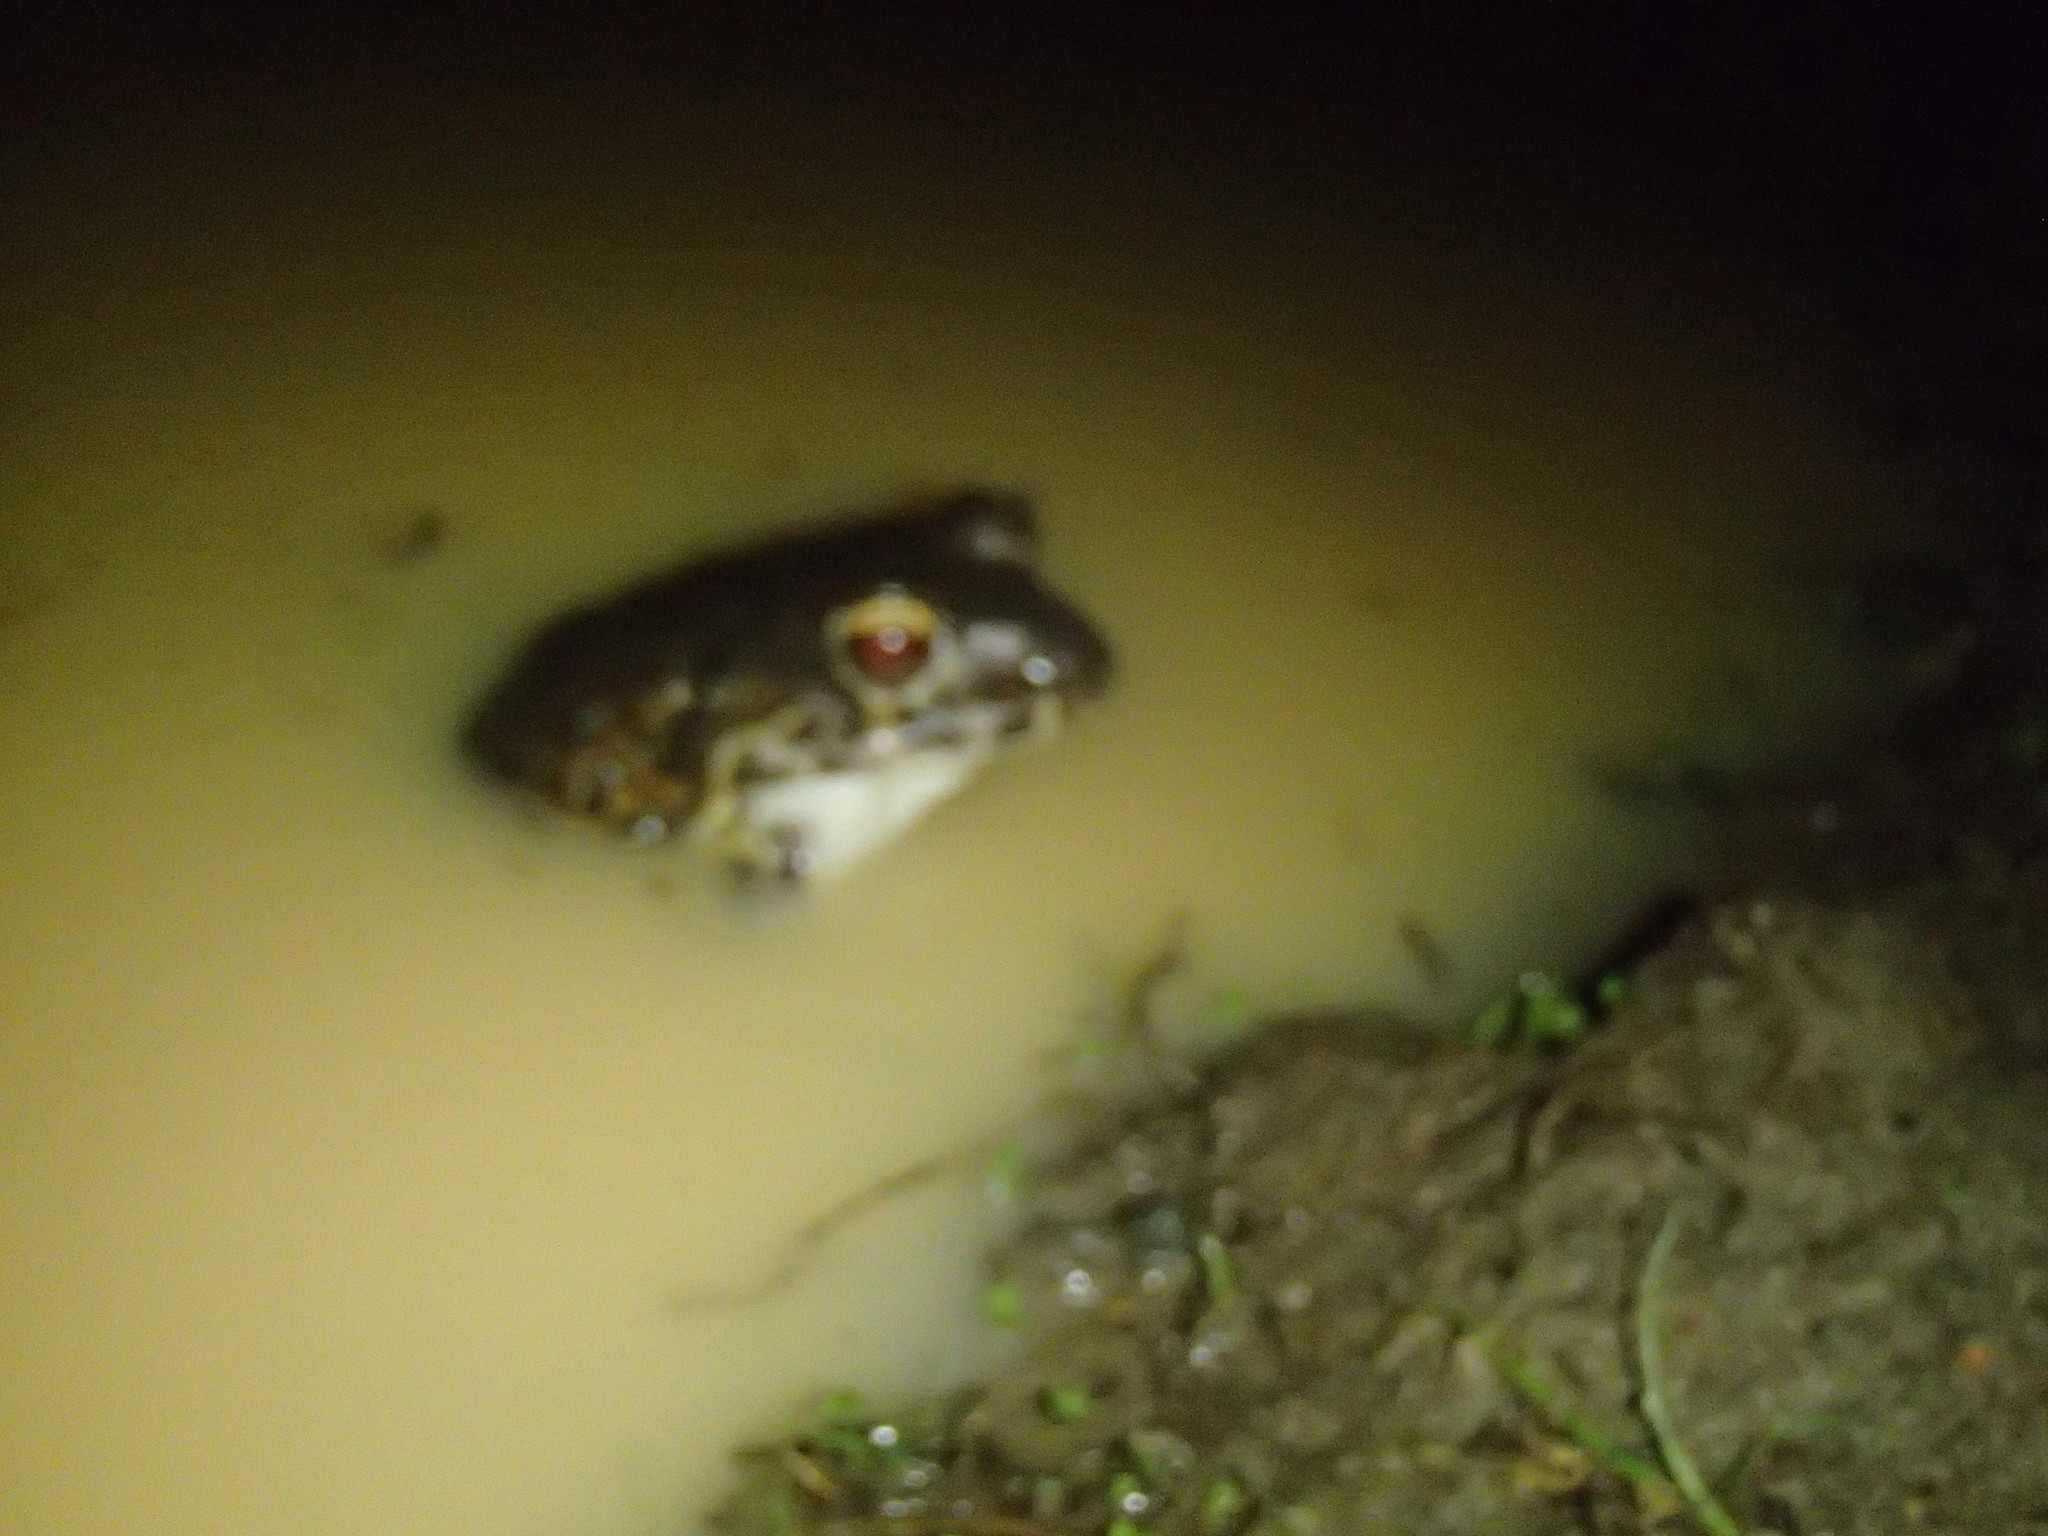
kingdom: Animalia
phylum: Chordata
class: Amphibia
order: Anura
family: Leptodactylidae
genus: Leptodactylus
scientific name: Leptodactylus vastus
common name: Northeastern pepper frog
